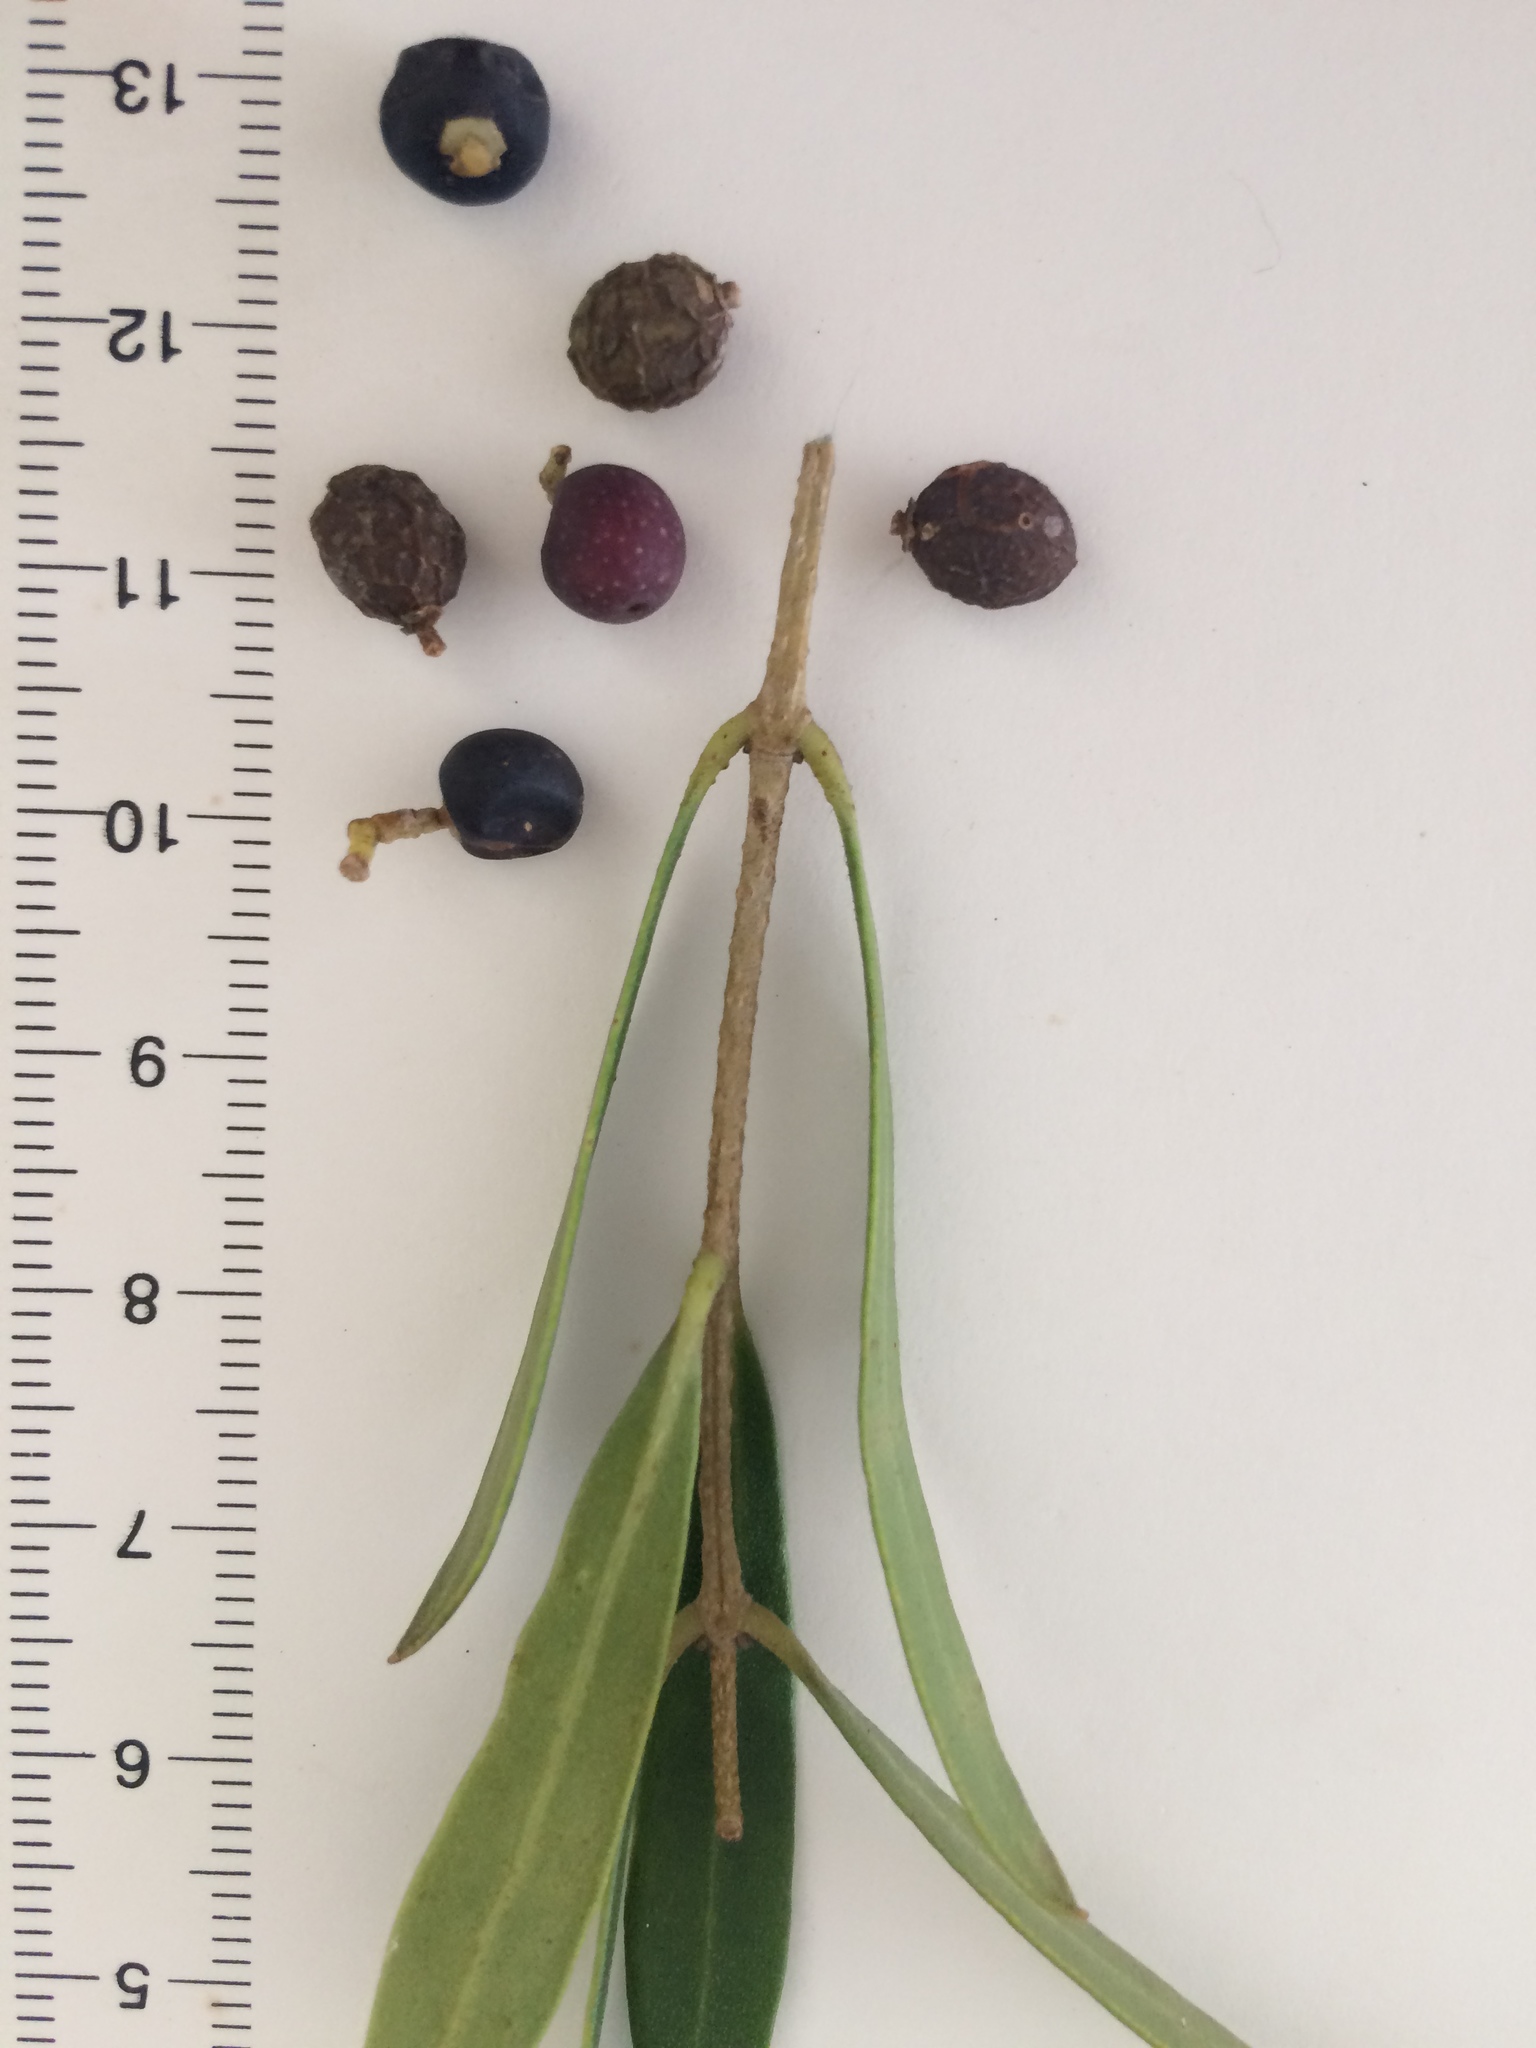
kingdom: Plantae
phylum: Tracheophyta
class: Magnoliopsida
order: Lamiales
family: Oleaceae
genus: Olea
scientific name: Olea exasperata
